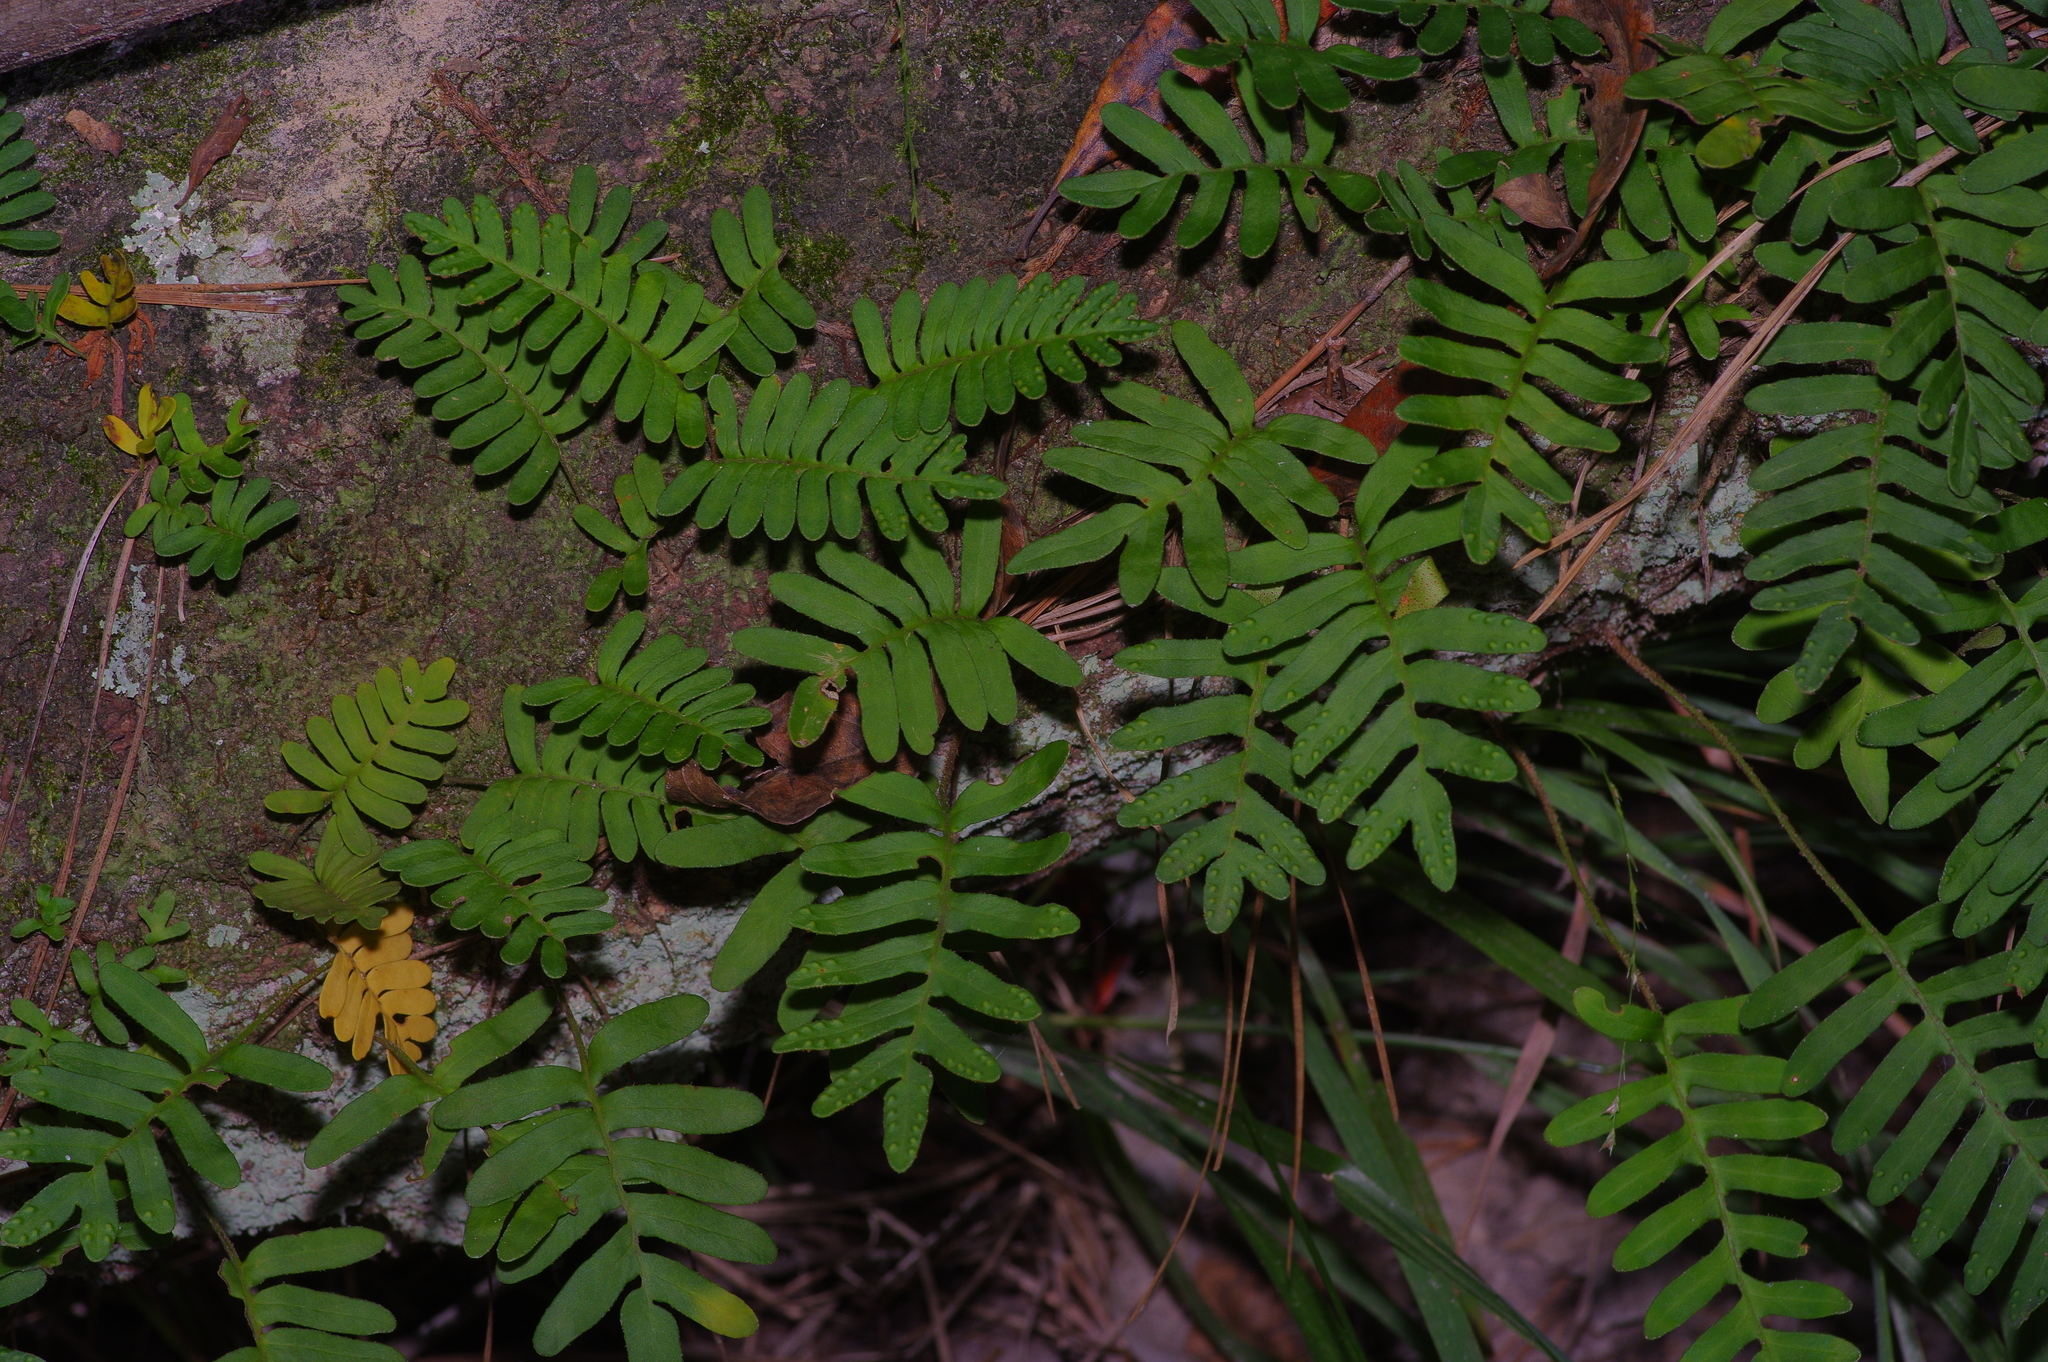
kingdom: Plantae
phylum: Tracheophyta
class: Polypodiopsida
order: Polypodiales
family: Polypodiaceae
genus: Pleopeltis
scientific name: Pleopeltis michauxiana
